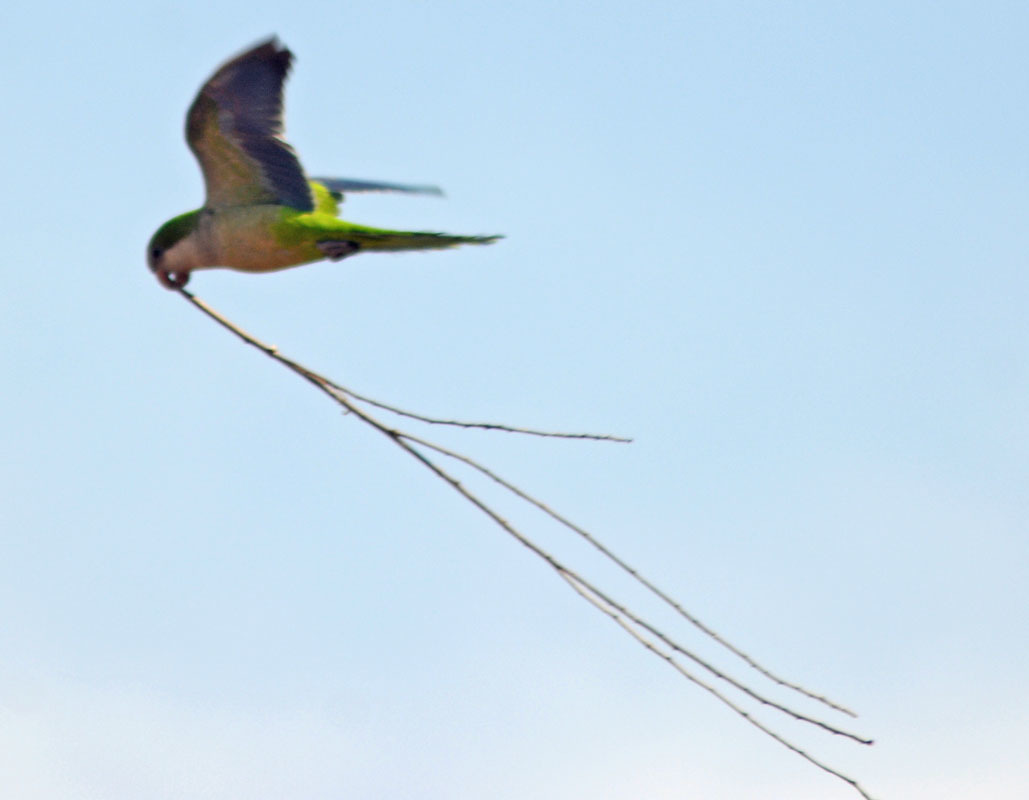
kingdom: Animalia
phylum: Chordata
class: Aves
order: Psittaciformes
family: Psittacidae
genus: Myiopsitta
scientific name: Myiopsitta monachus
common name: Monk parakeet
